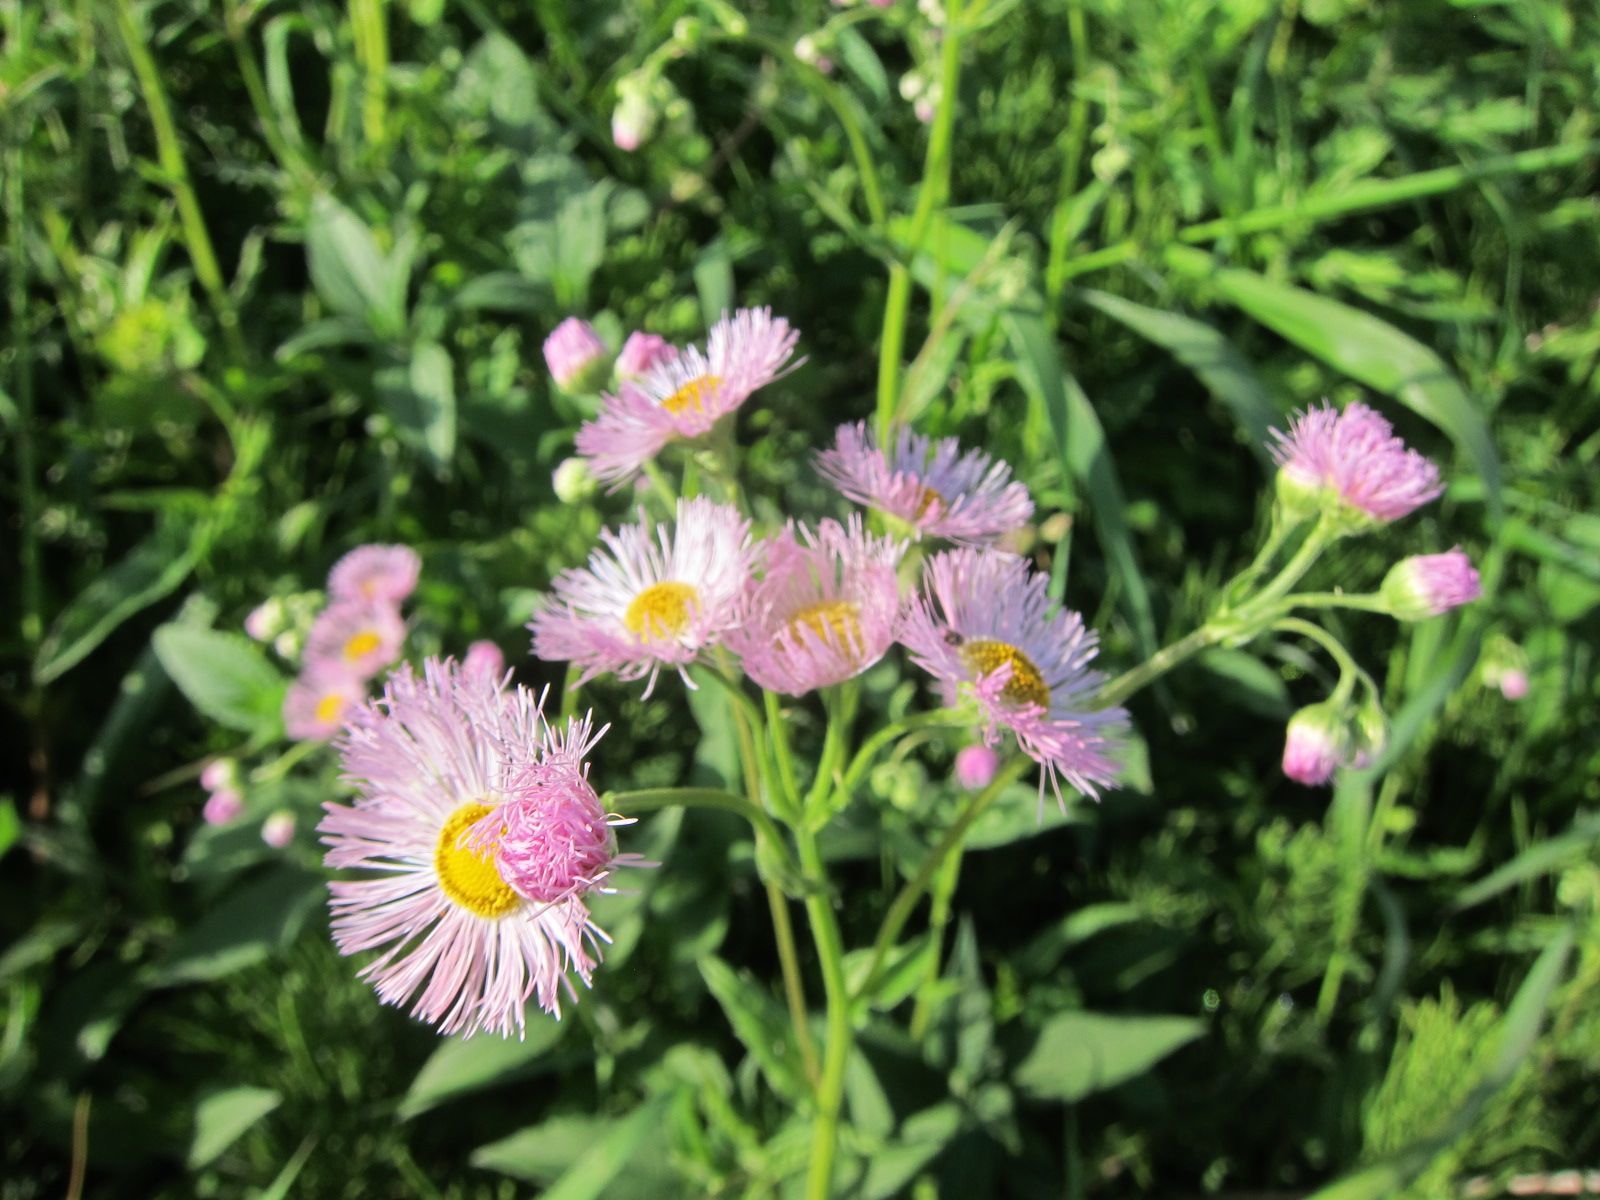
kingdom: Plantae
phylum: Tracheophyta
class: Magnoliopsida
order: Asterales
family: Asteraceae
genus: Erigeron
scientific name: Erigeron philadelphicus
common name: Robin's-plantain
